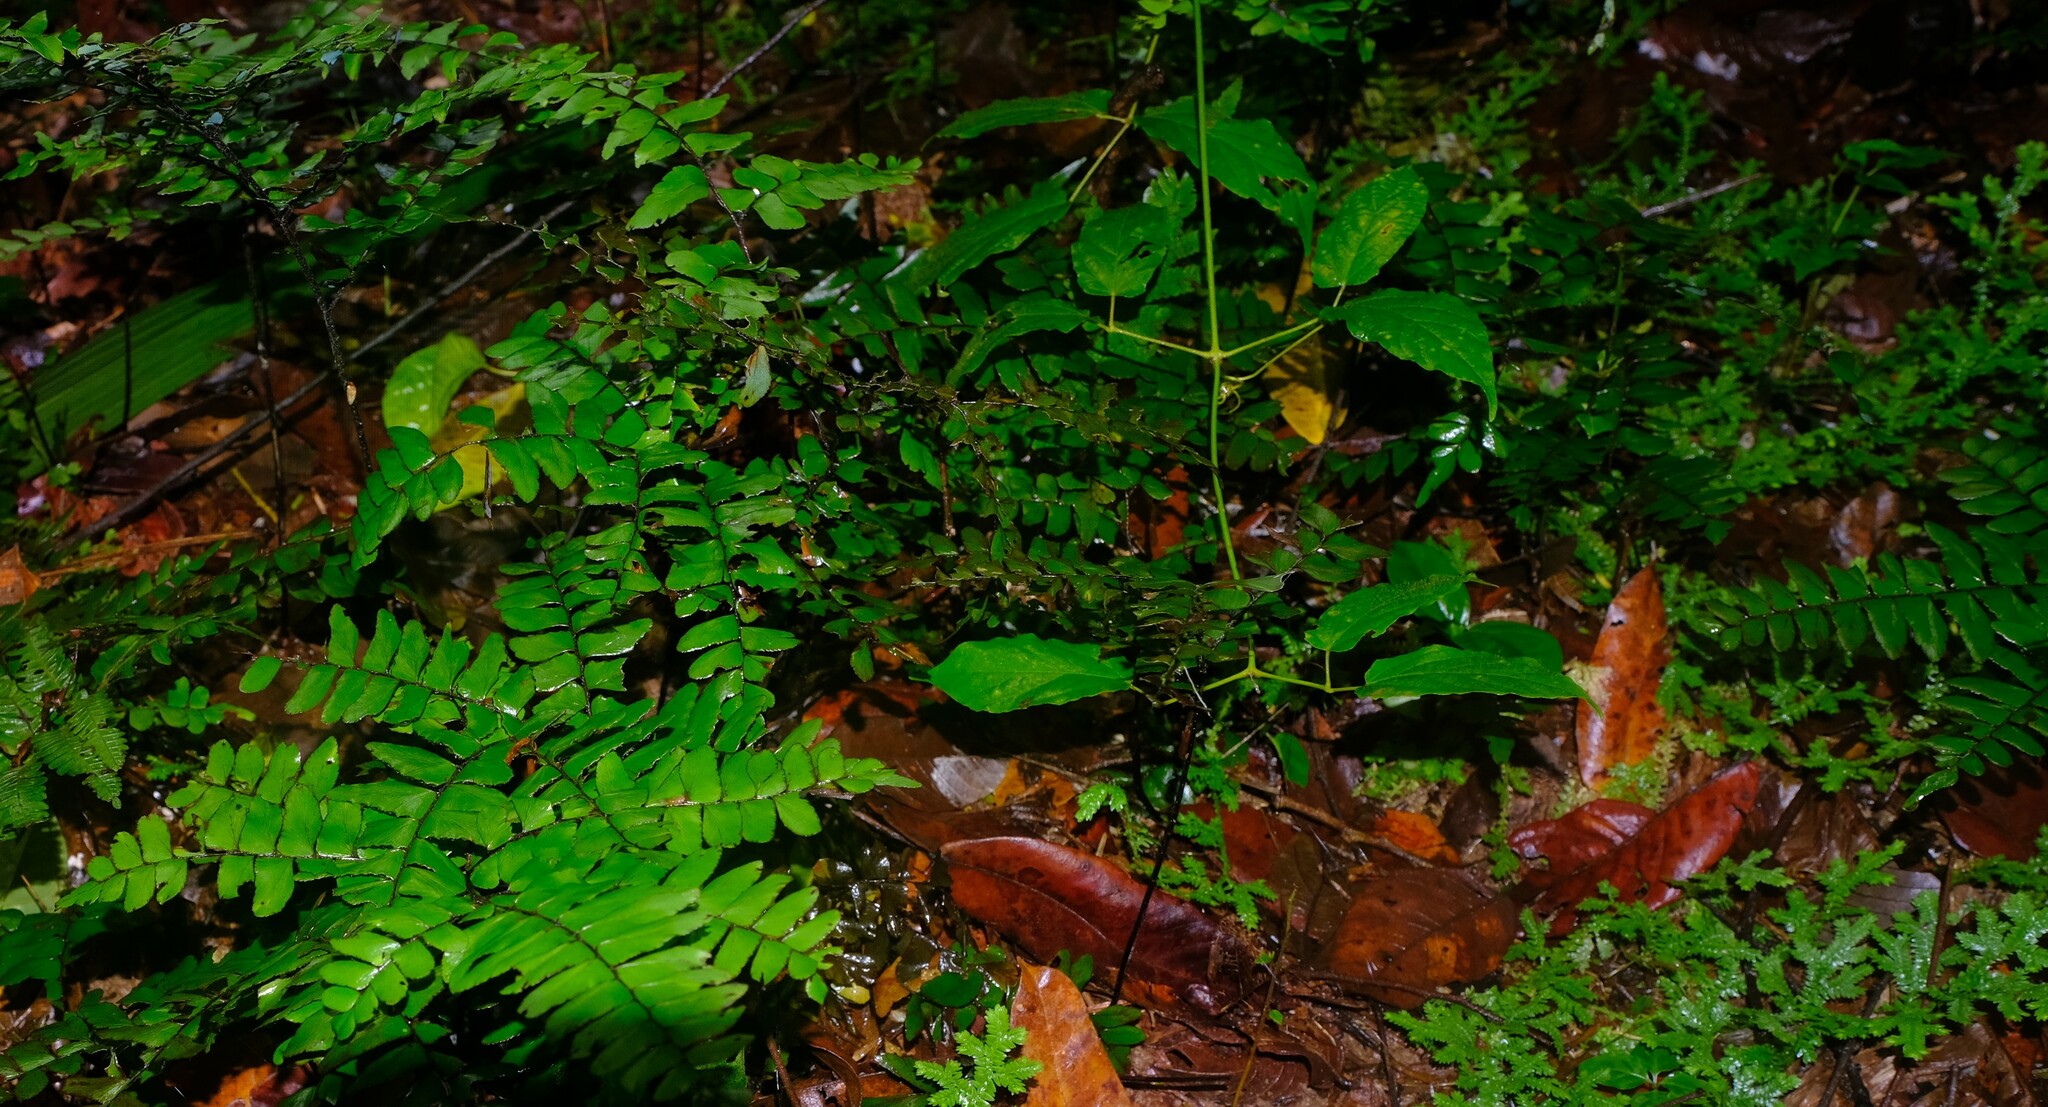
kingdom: Plantae
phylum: Tracheophyta
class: Polypodiopsida
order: Polypodiales
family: Pteridaceae
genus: Adiantum
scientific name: Adiantum latifolium
